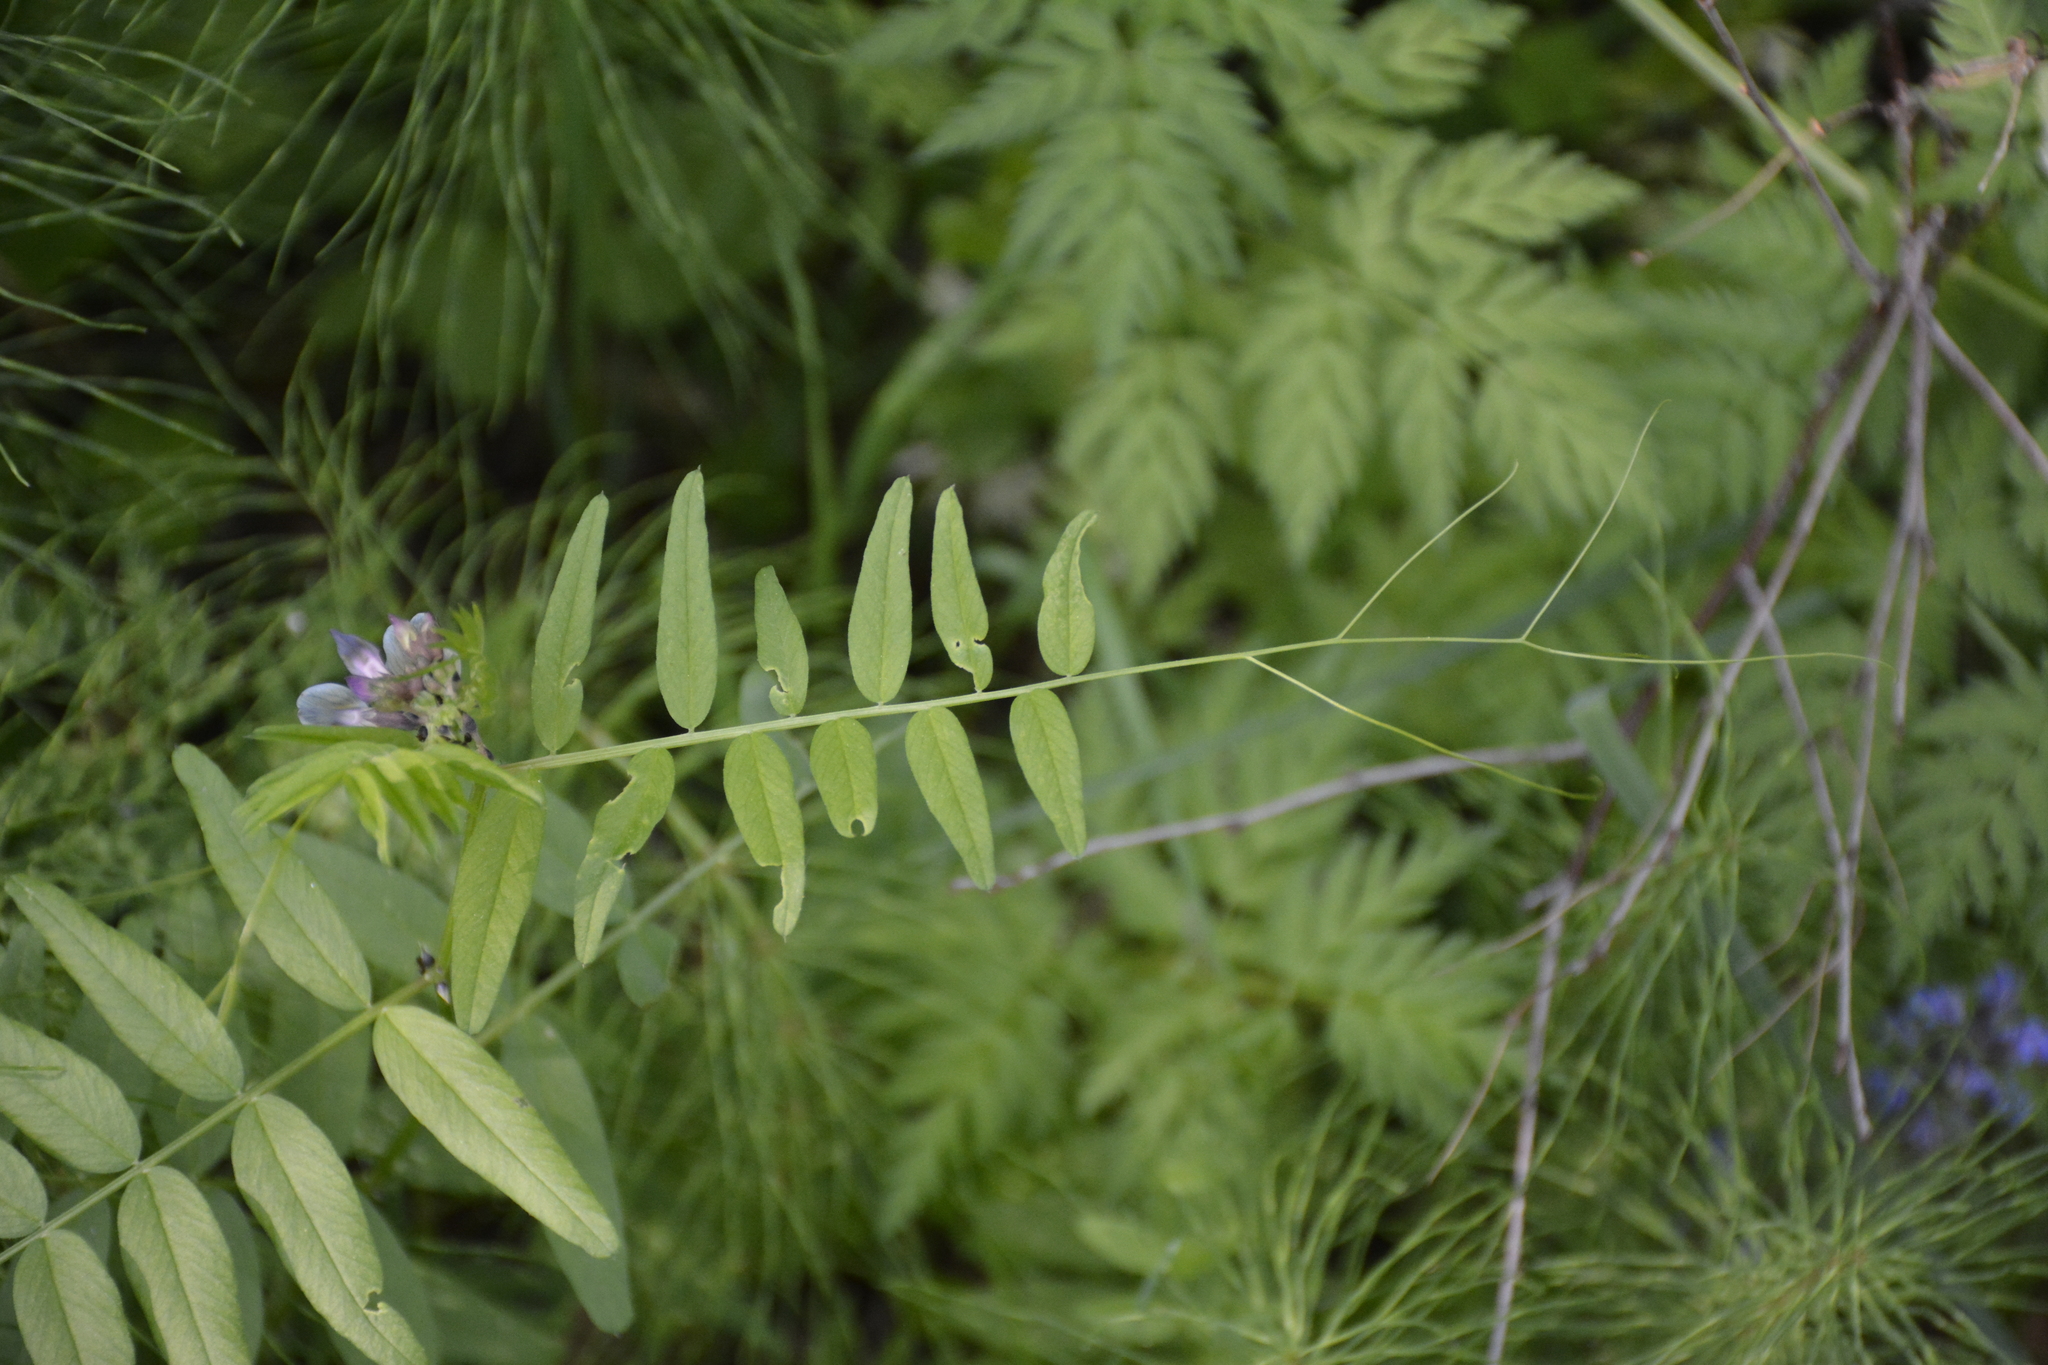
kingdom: Plantae
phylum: Tracheophyta
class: Magnoliopsida
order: Fabales
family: Fabaceae
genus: Vicia
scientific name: Vicia sepium
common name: Bush vetch
